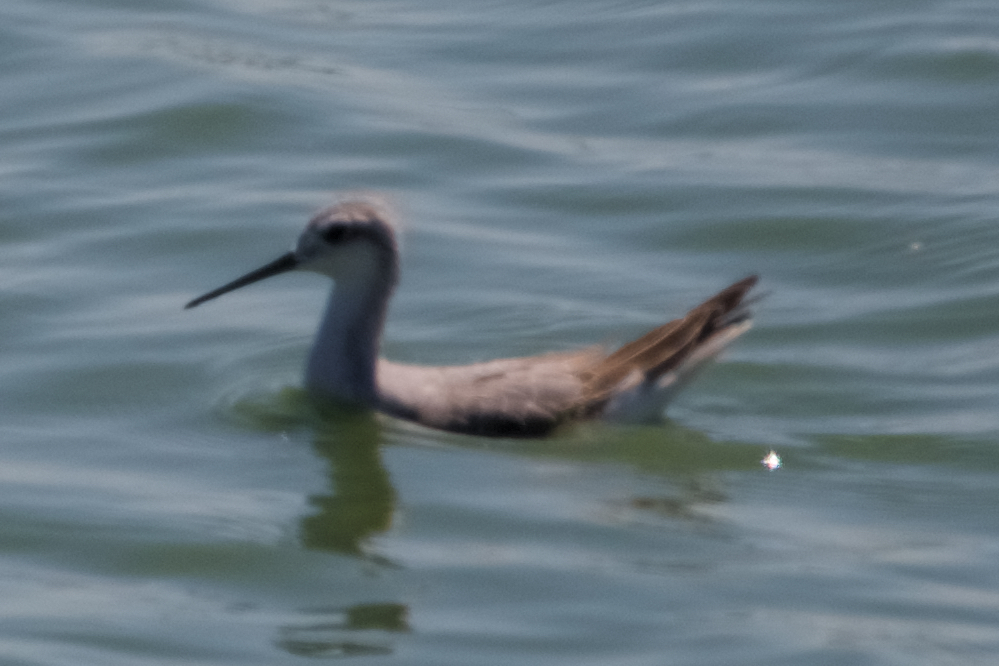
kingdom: Animalia
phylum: Chordata
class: Aves
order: Charadriiformes
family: Scolopacidae
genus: Phalaropus
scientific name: Phalaropus tricolor
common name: Wilson's phalarope
